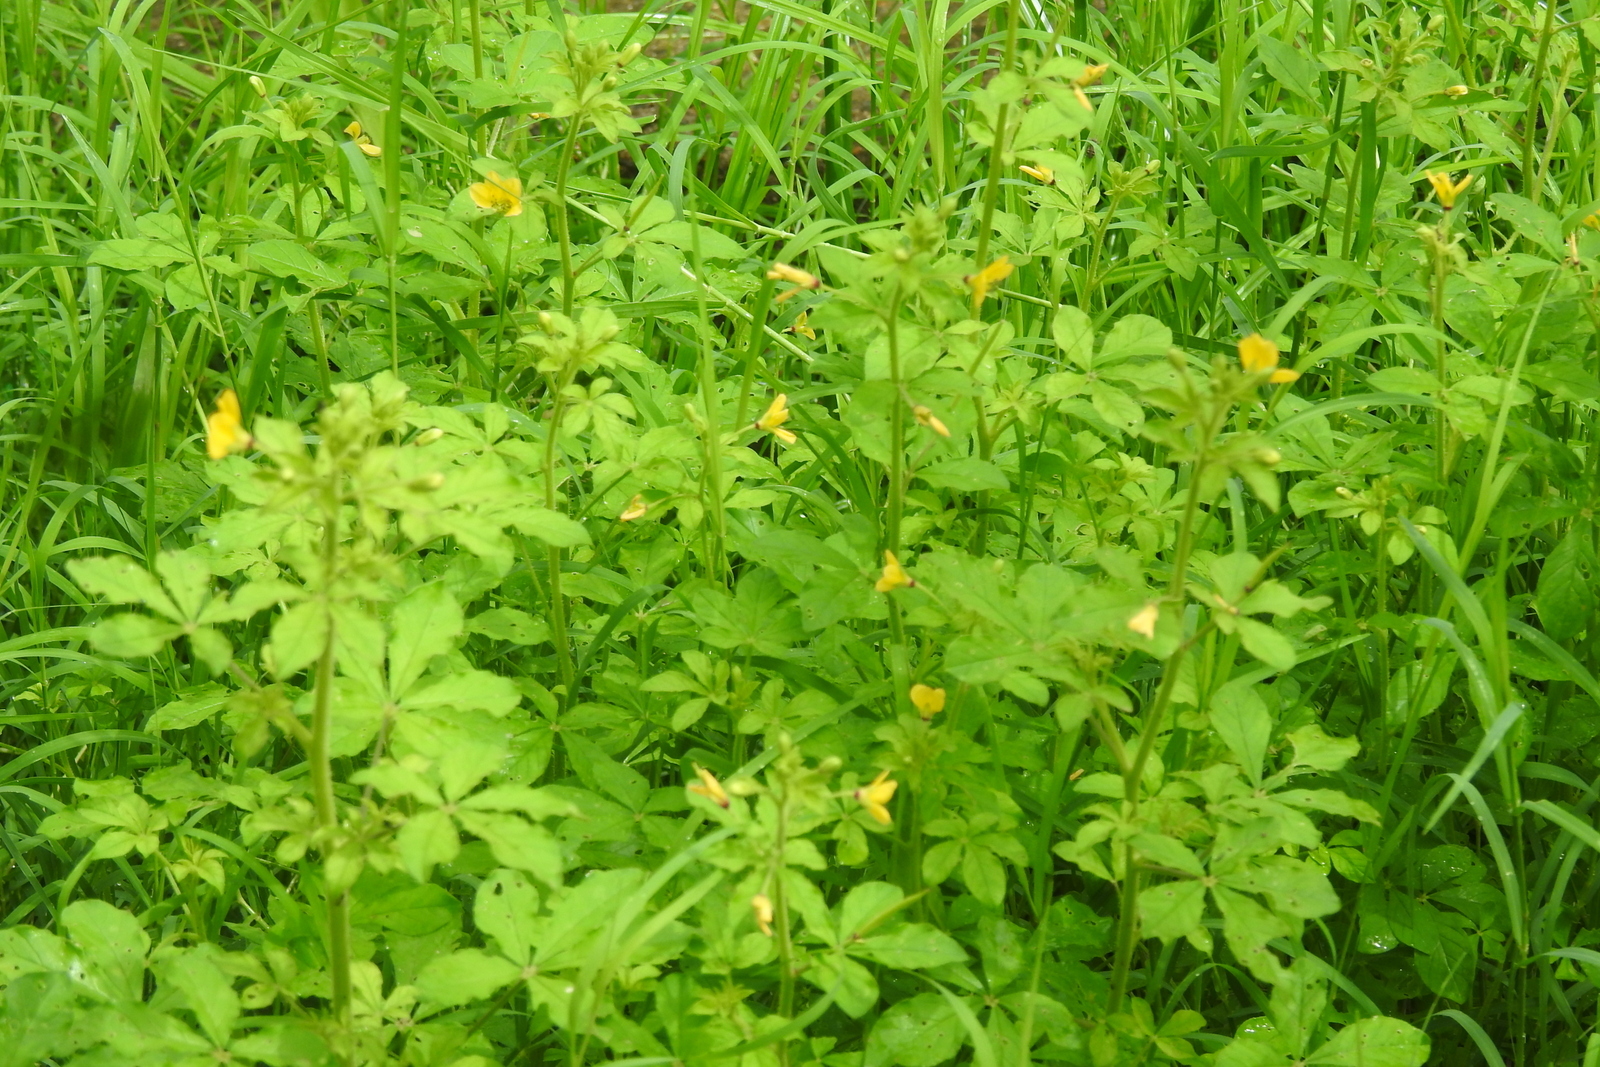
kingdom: Plantae
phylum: Tracheophyta
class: Magnoliopsida
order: Brassicales
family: Cleomaceae
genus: Arivela
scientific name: Arivela viscosa
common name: Asian spiderflower
